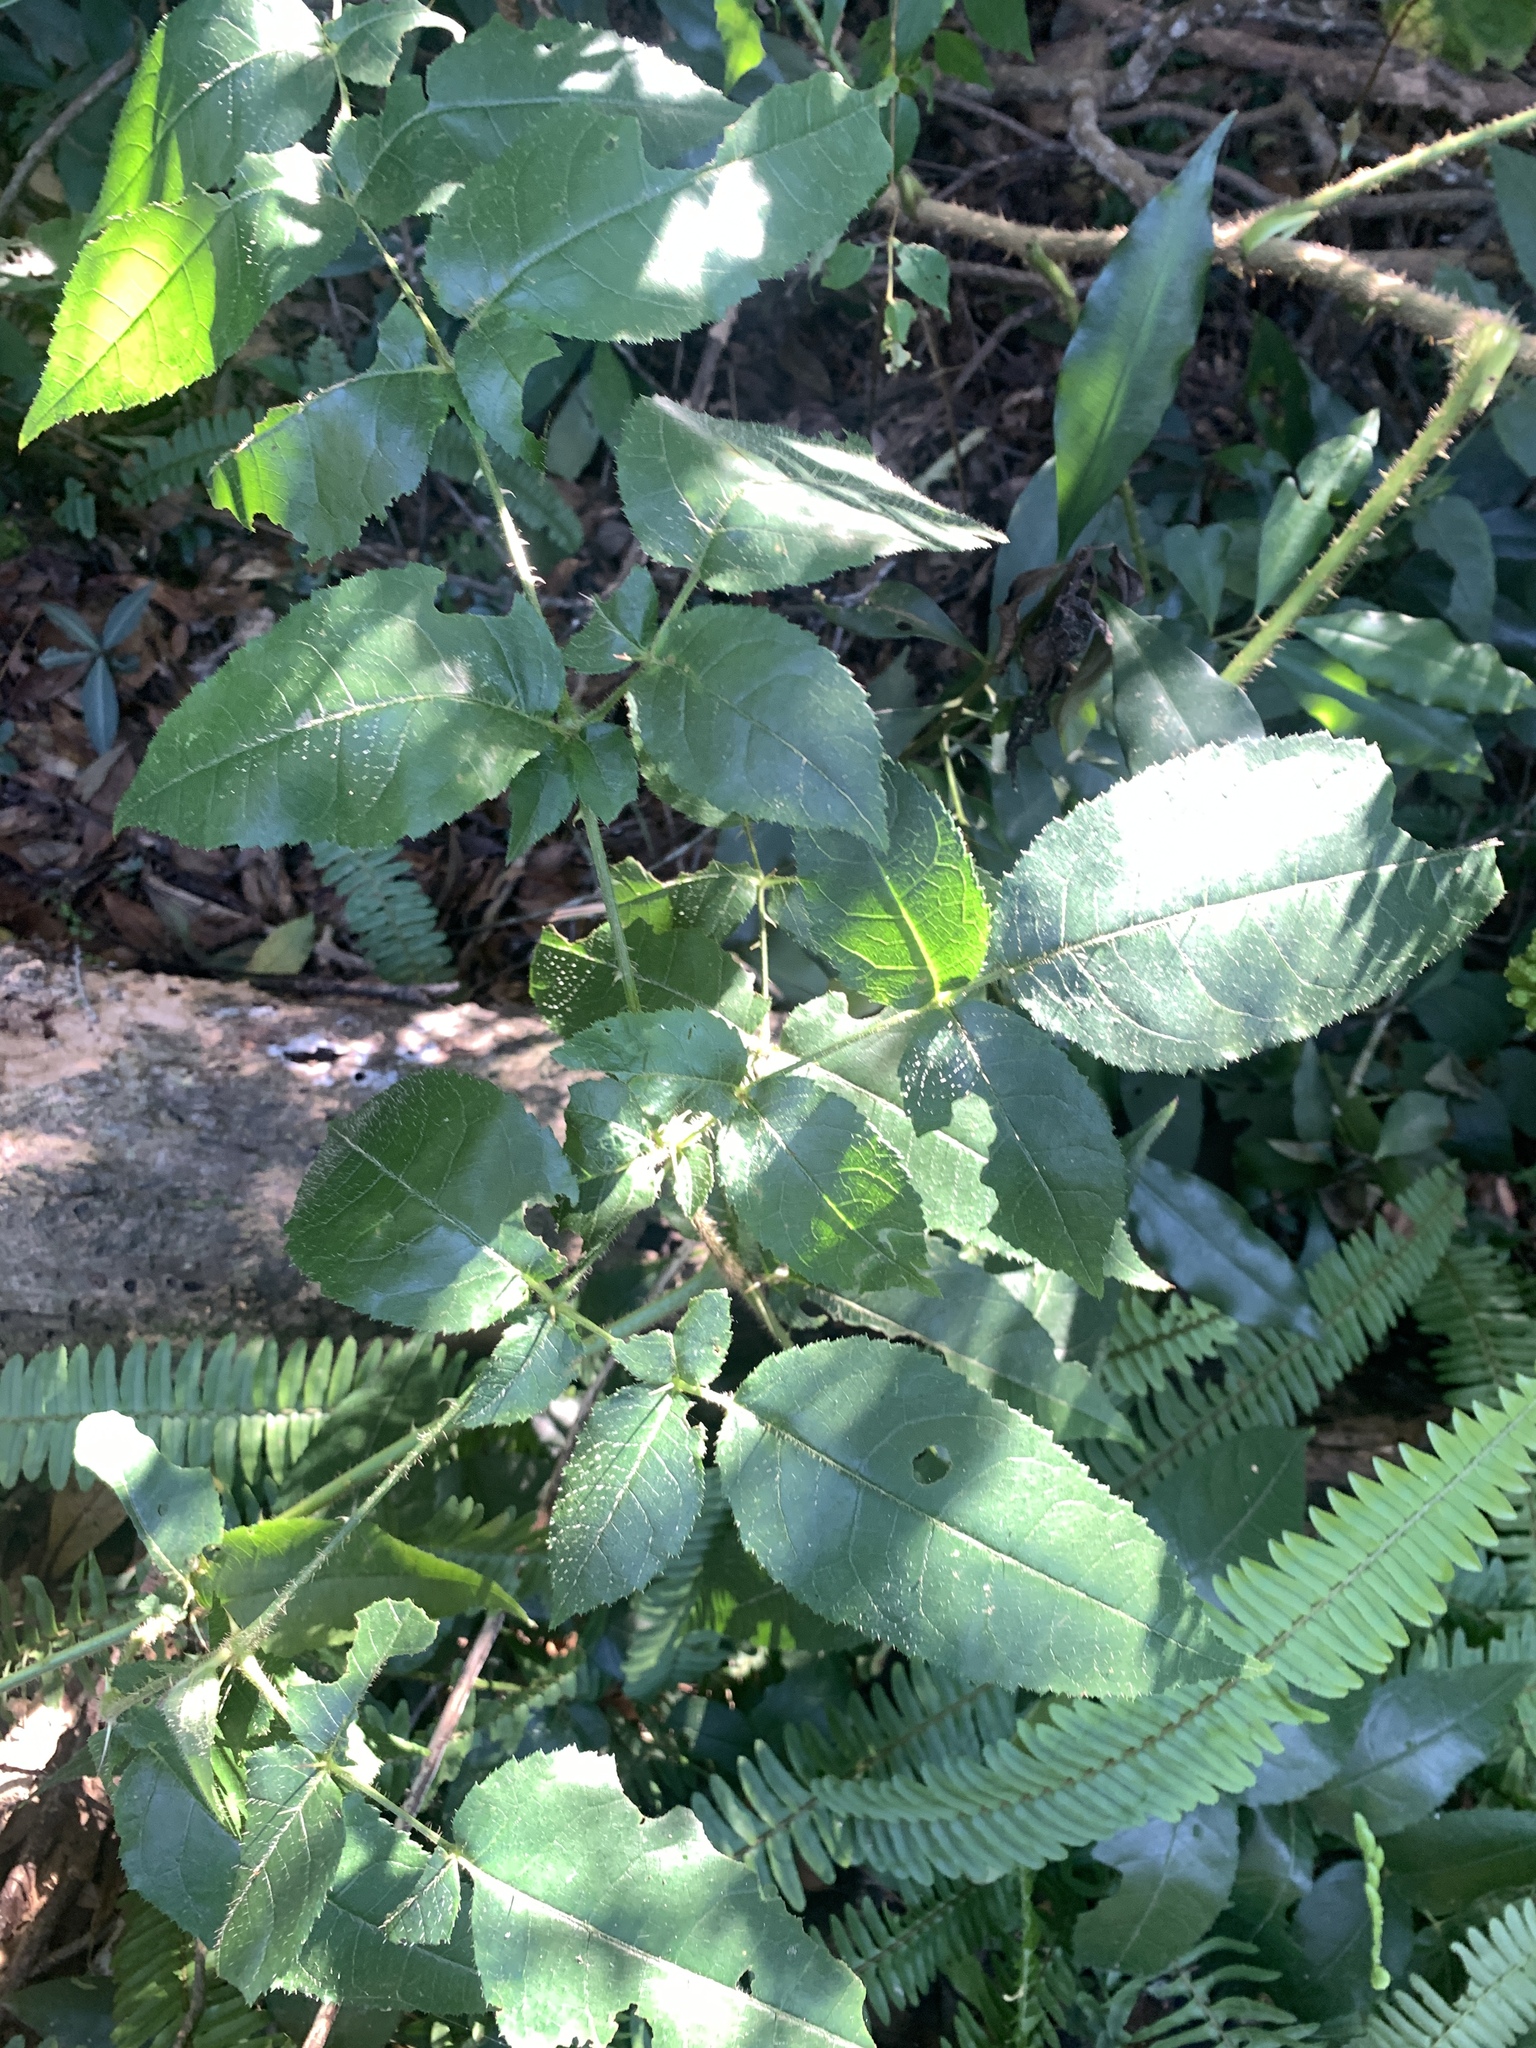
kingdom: Plantae
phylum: Tracheophyta
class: Magnoliopsida
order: Apiales
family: Araliaceae
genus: Aralia
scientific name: Aralia armata
